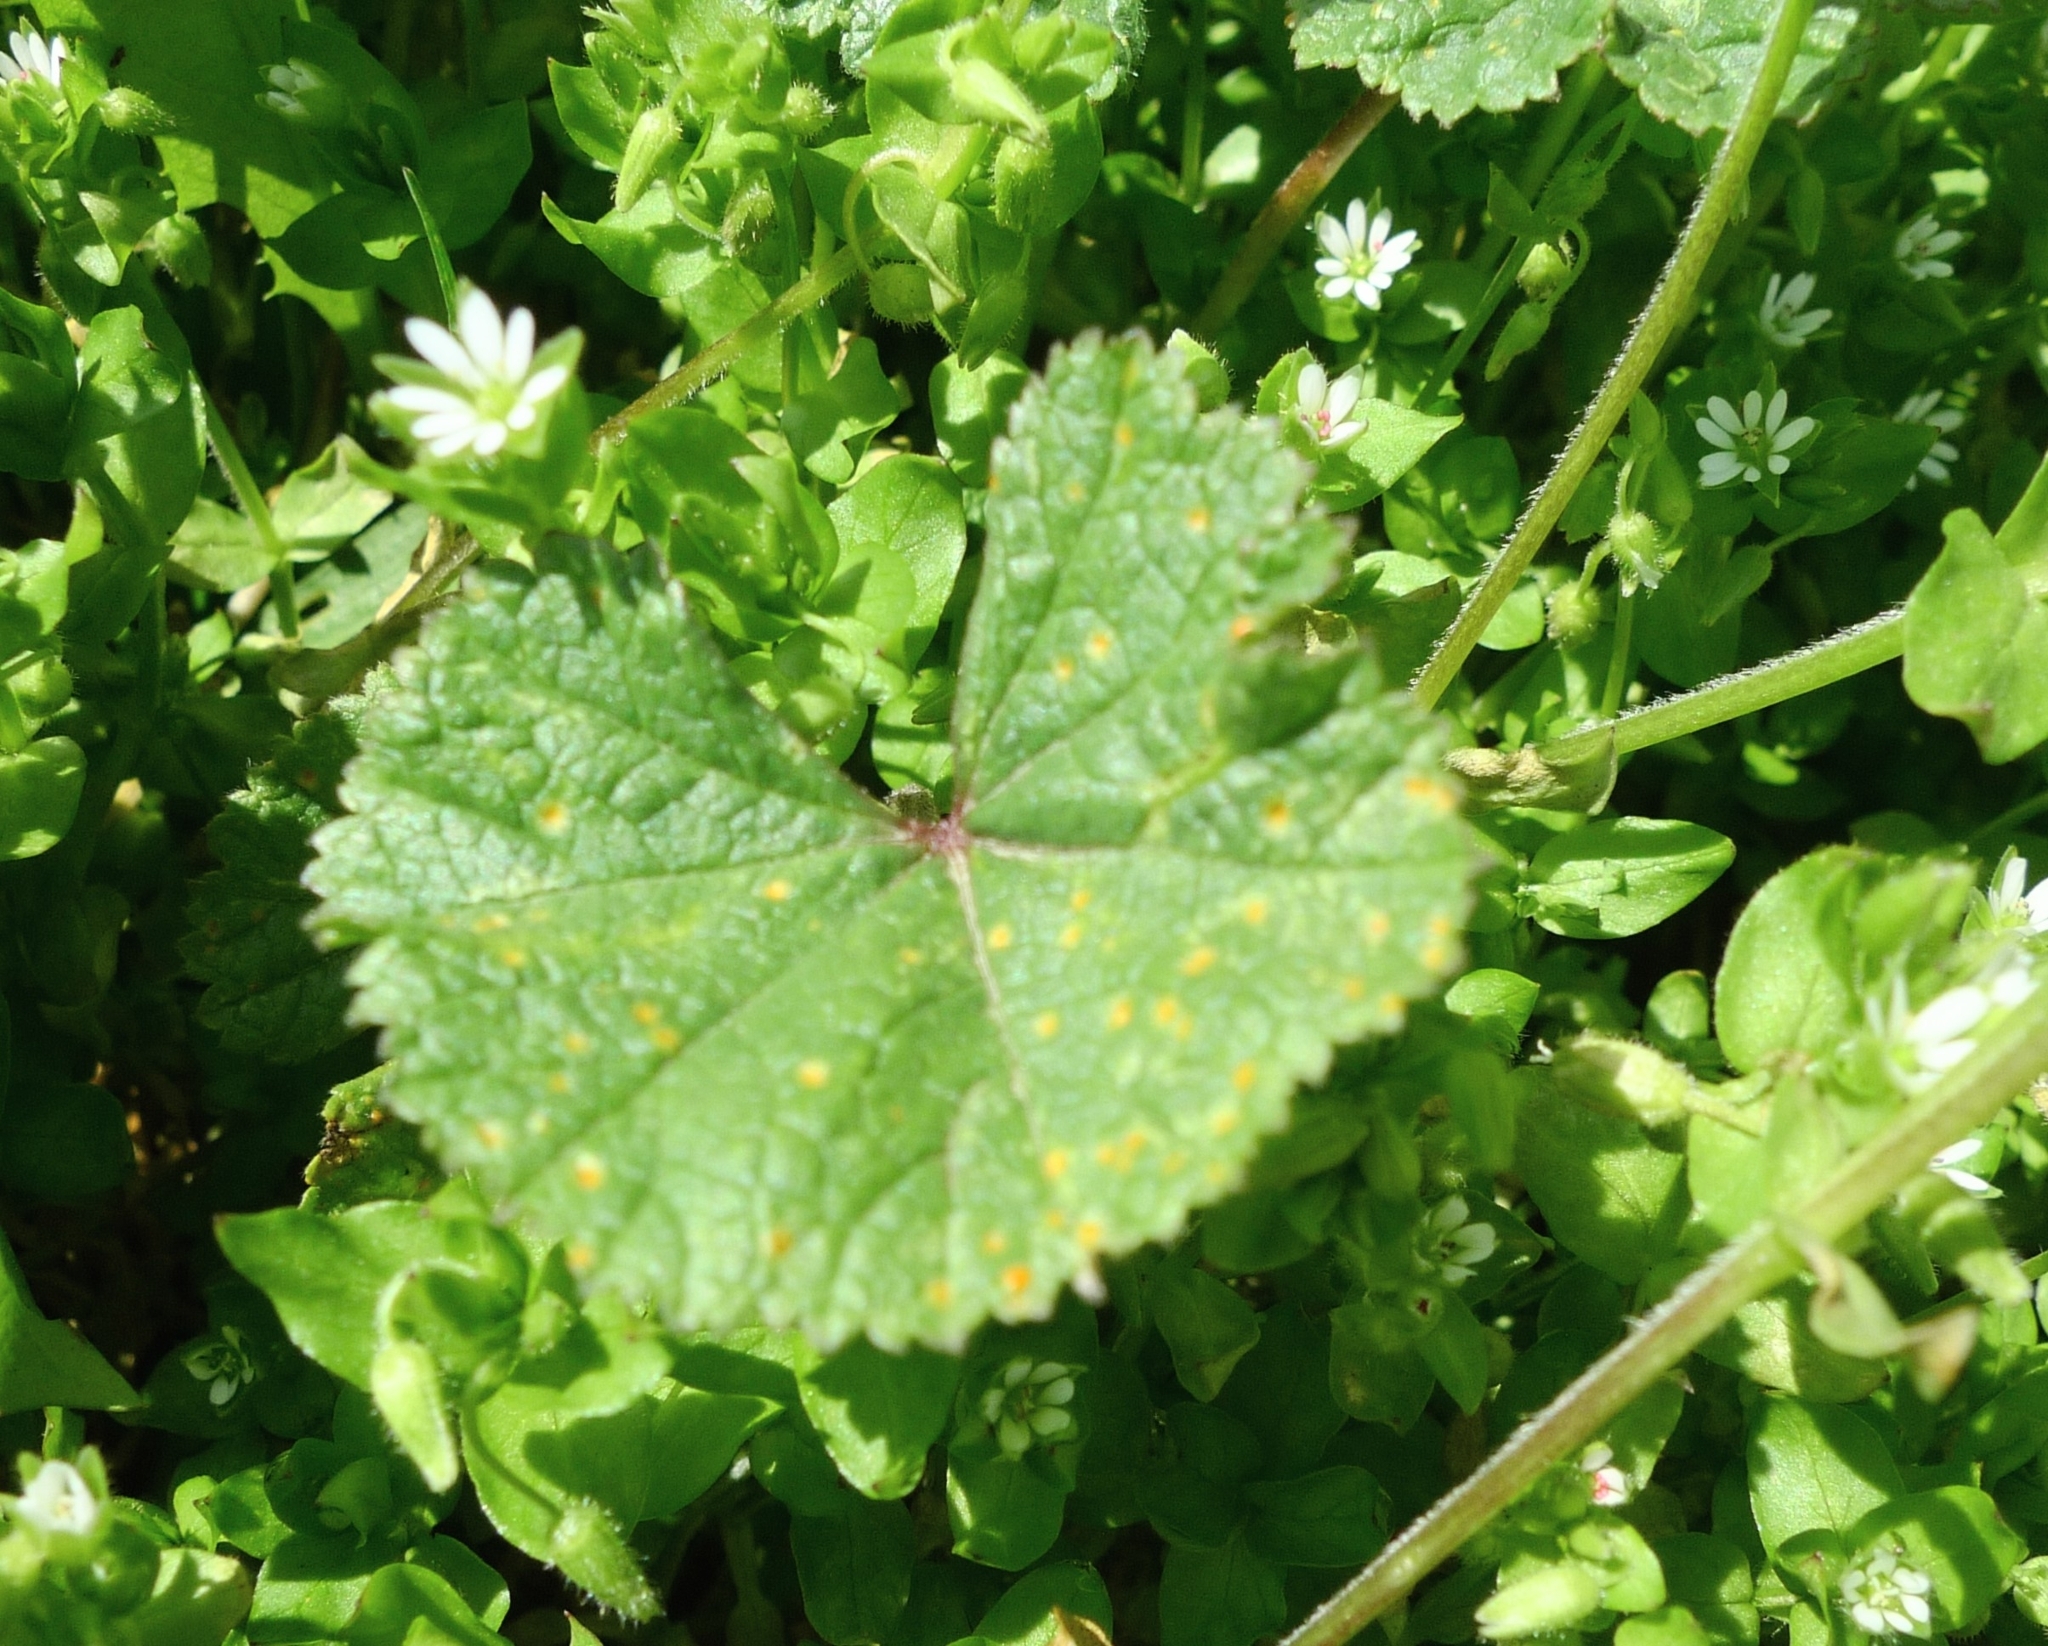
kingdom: Fungi
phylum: Basidiomycota
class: Pucciniomycetes
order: Pucciniales
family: Pucciniaceae
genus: Puccinia
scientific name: Puccinia malvacearum
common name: Hollyhock rust
